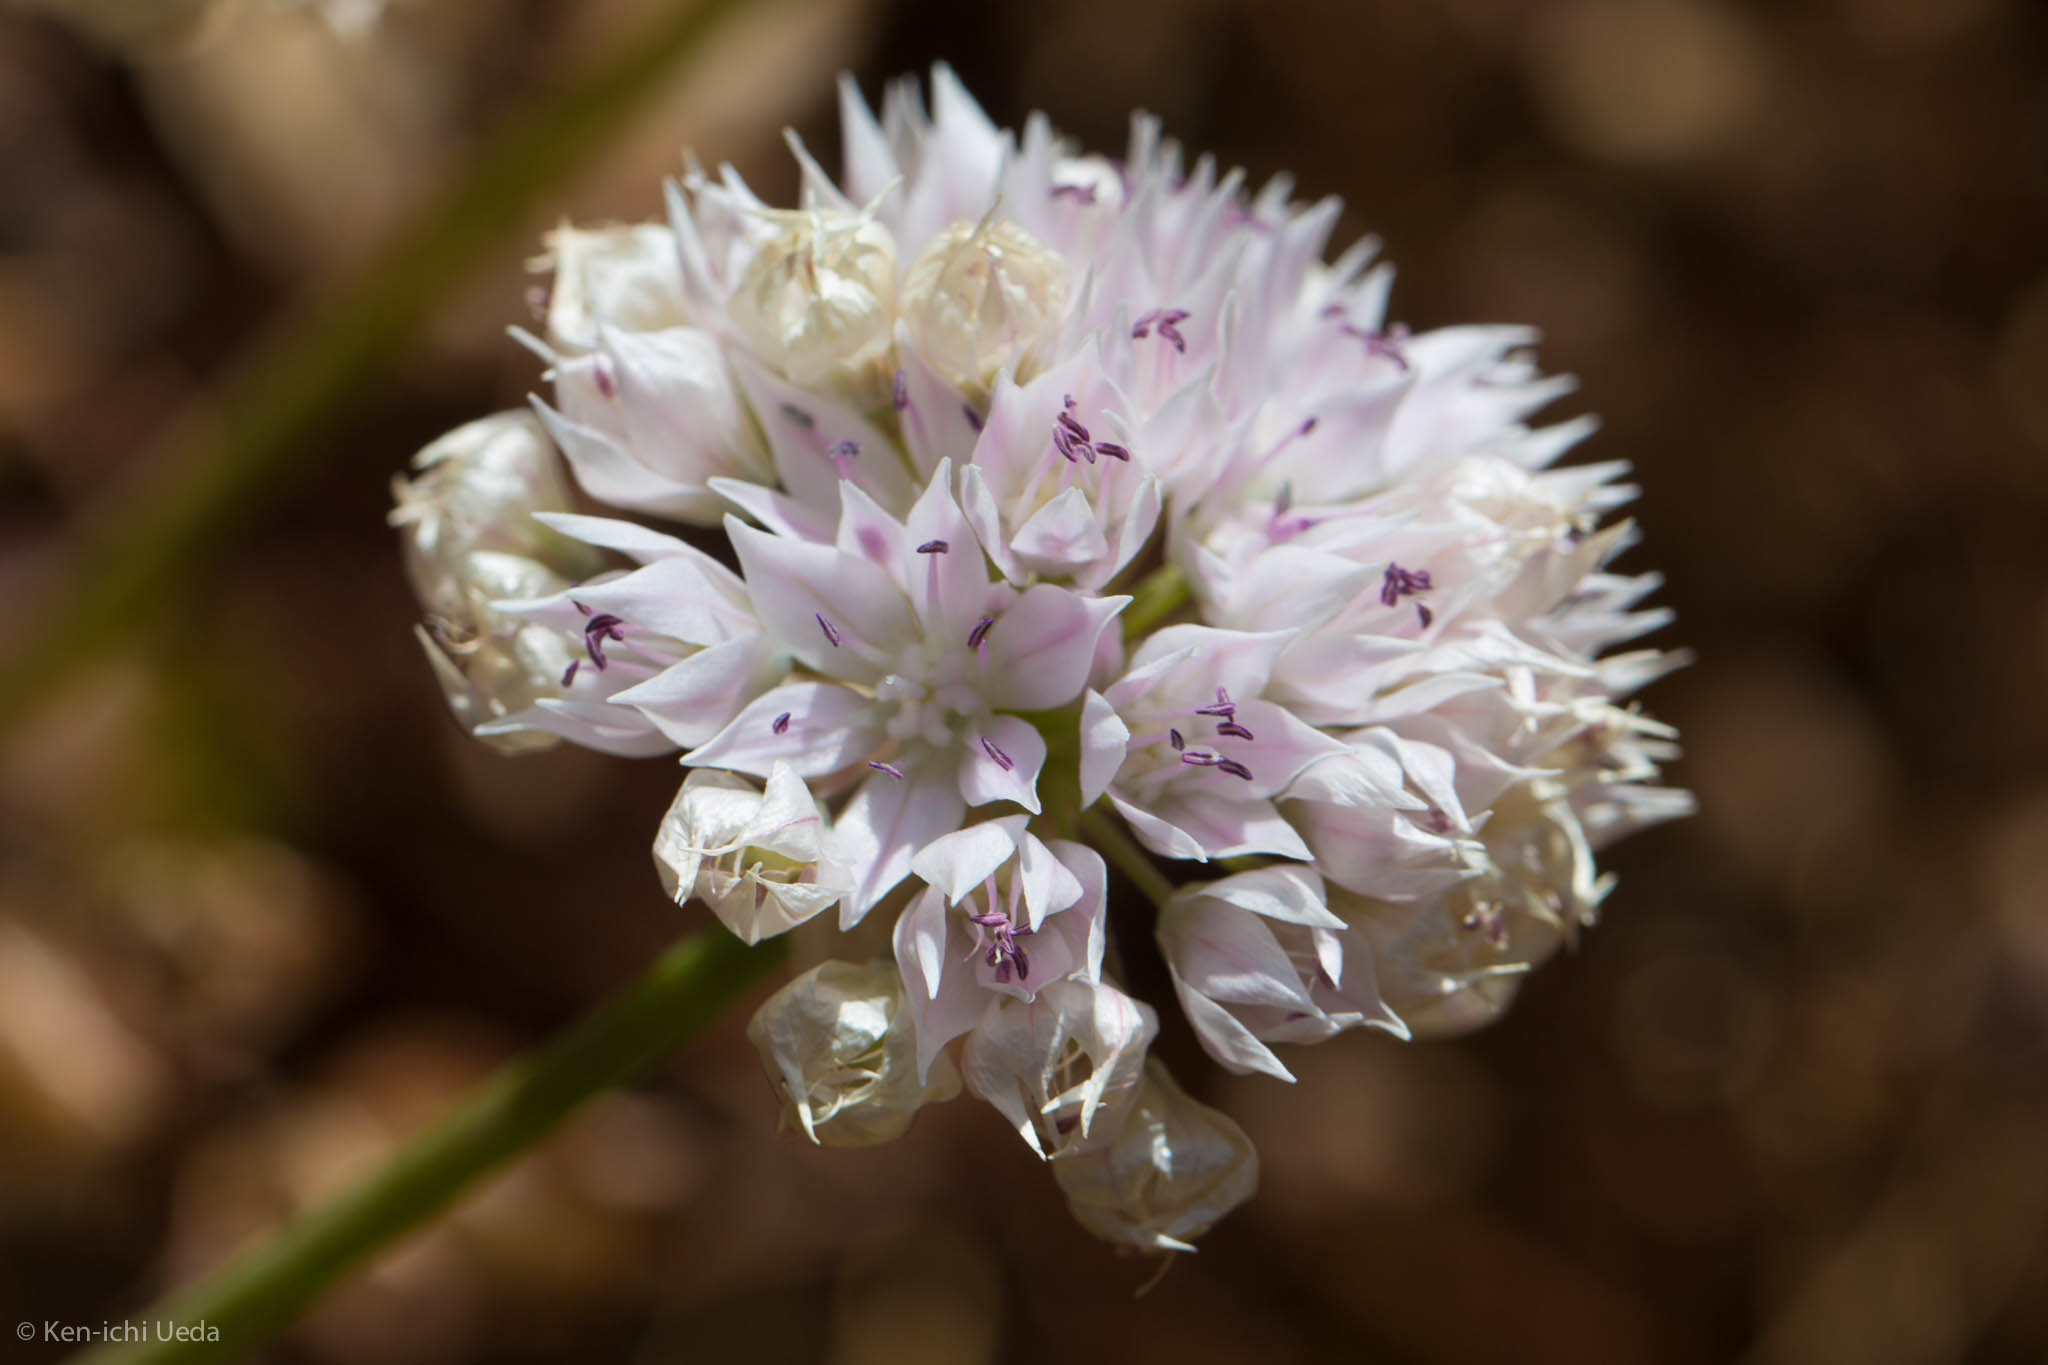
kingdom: Plantae
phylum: Tracheophyta
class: Liliopsida
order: Asparagales
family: Amaryllidaceae
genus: Allium
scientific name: Allium amplectens
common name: Narrow-leaved onion
